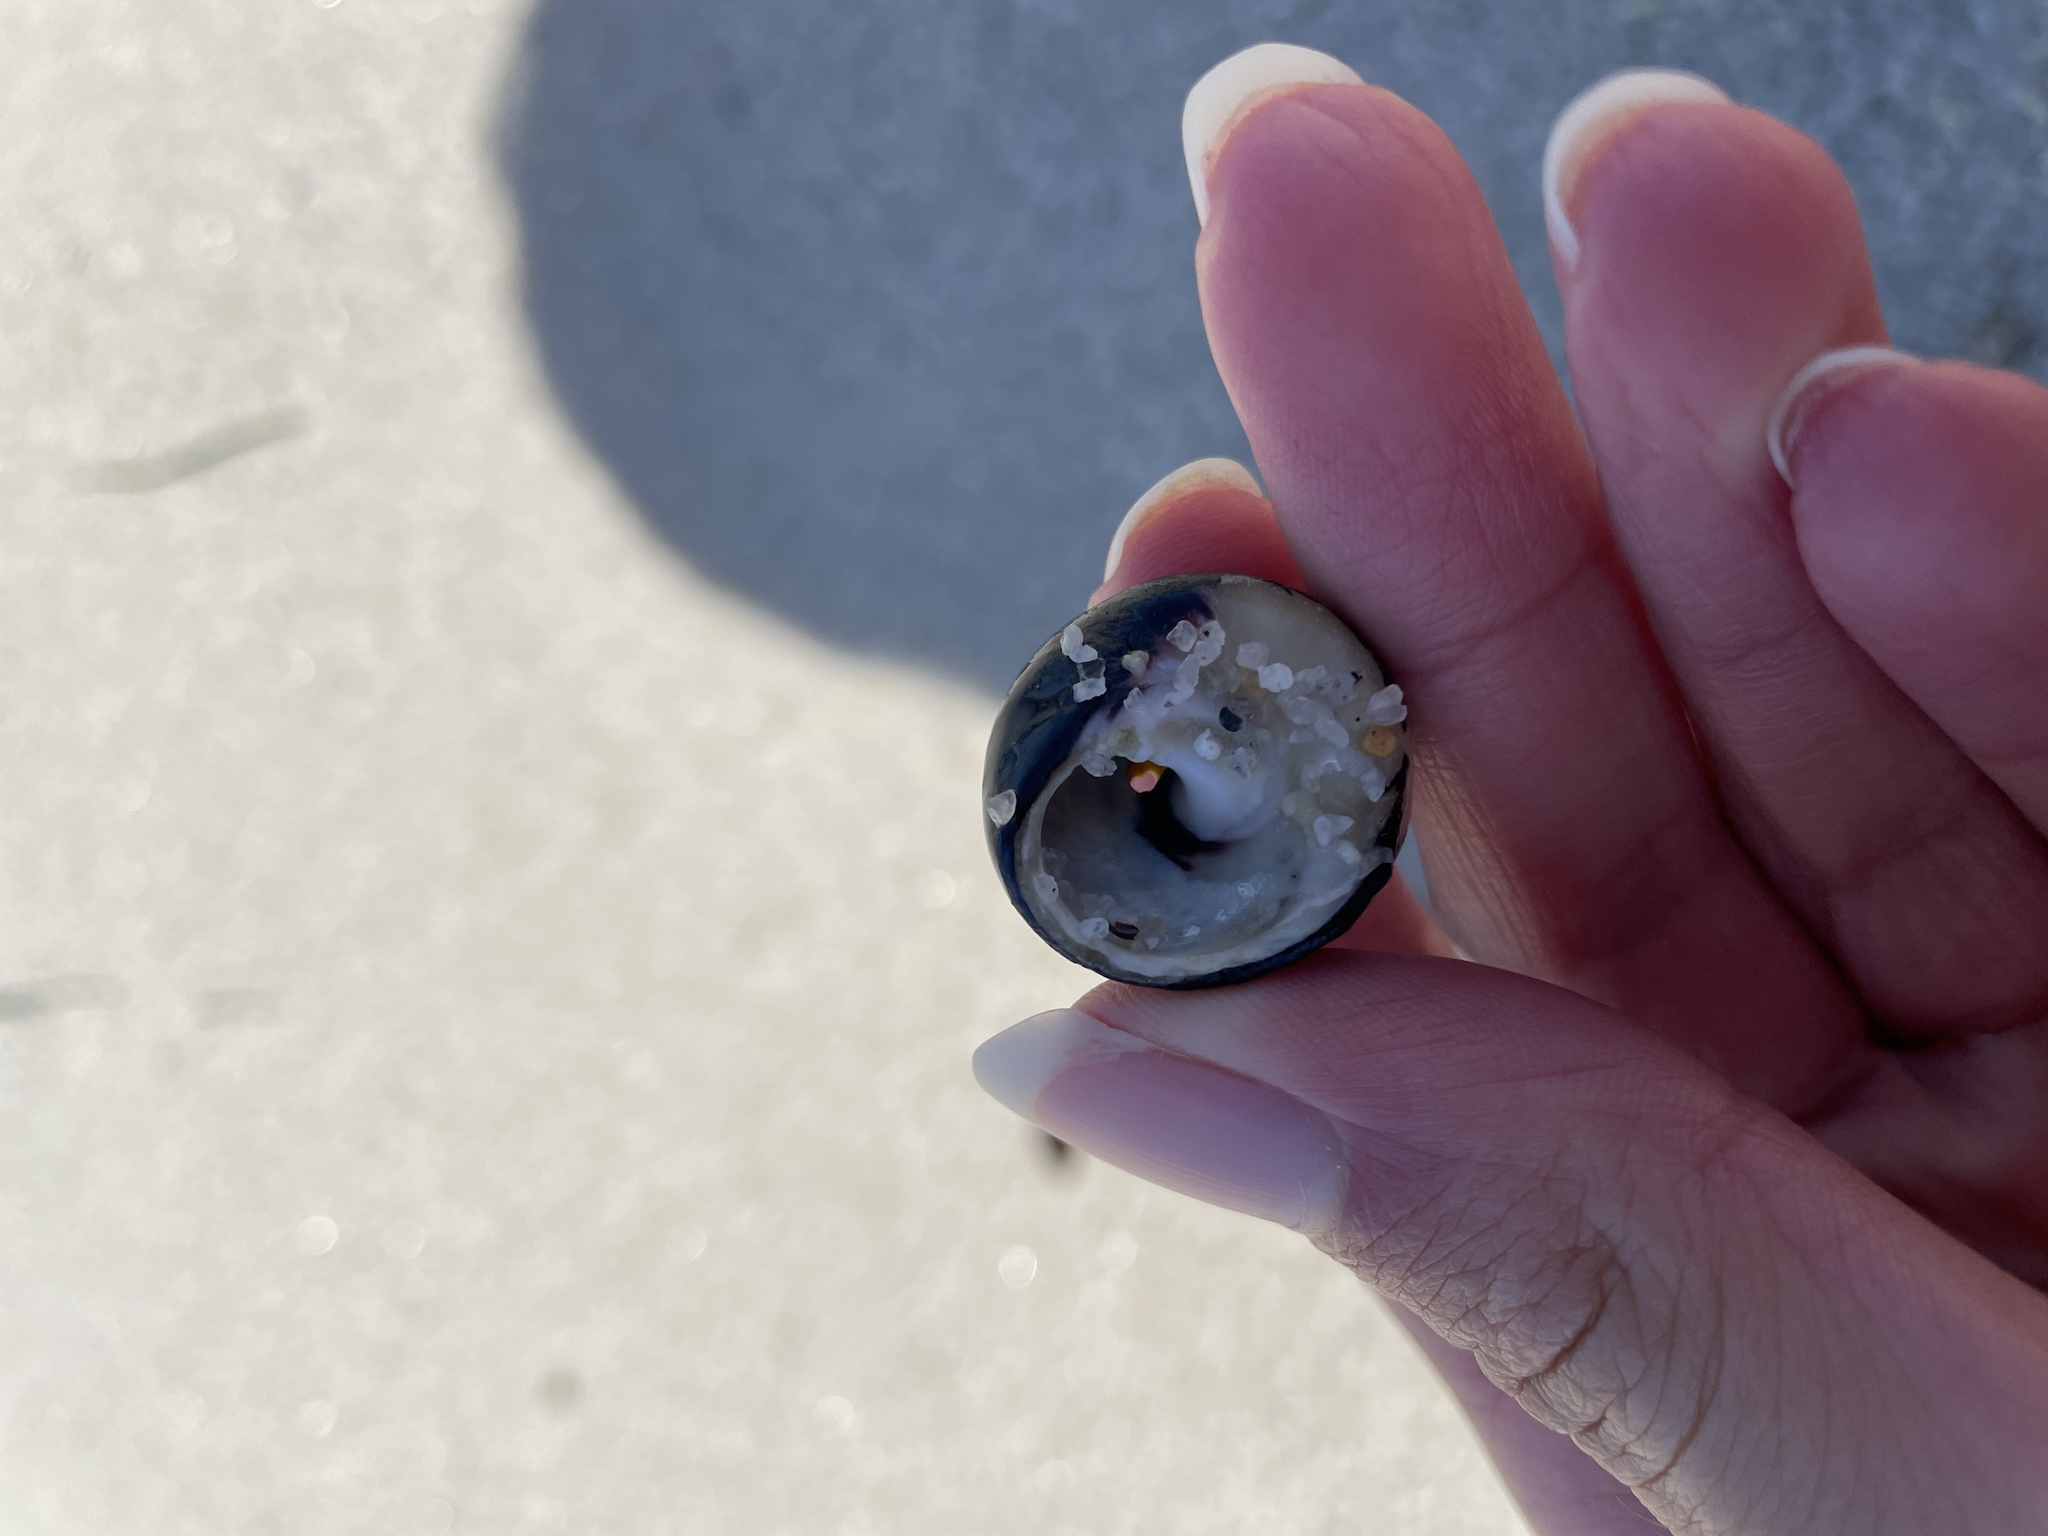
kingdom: Animalia
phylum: Mollusca
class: Gastropoda
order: Trochida
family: Tegulidae
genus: Tegula
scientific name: Tegula funebralis
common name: Black tegula
